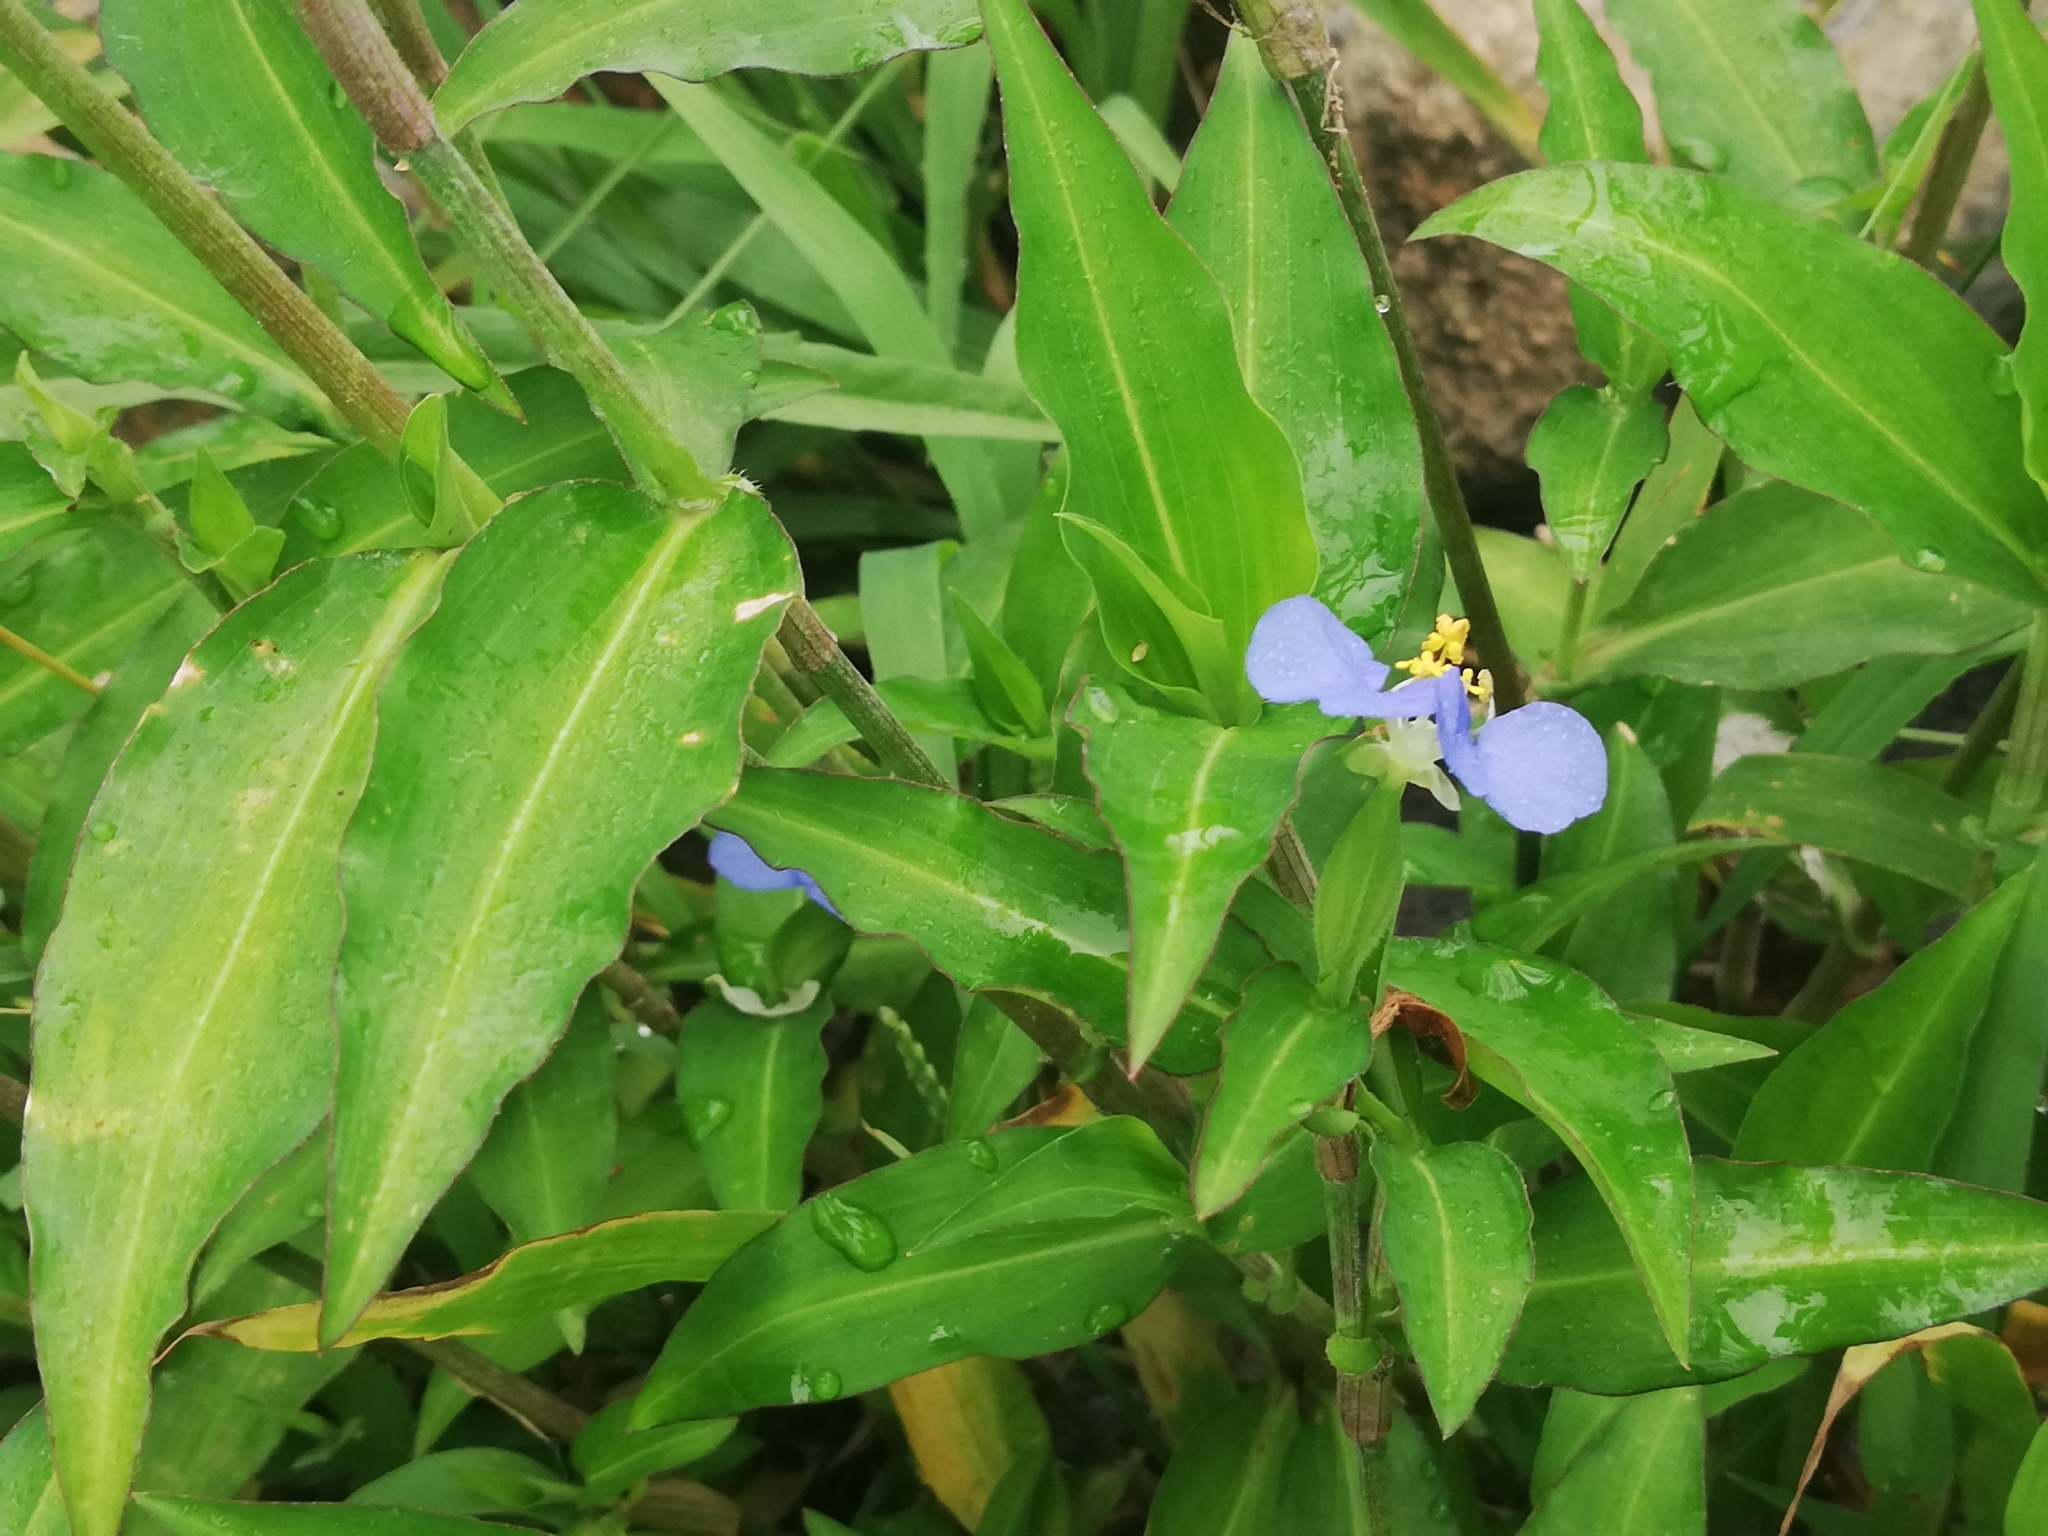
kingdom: Plantae
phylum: Tracheophyta
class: Liliopsida
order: Commelinales
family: Commelinaceae
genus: Commelina
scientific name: Commelina erecta
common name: Blousel blommetjie
